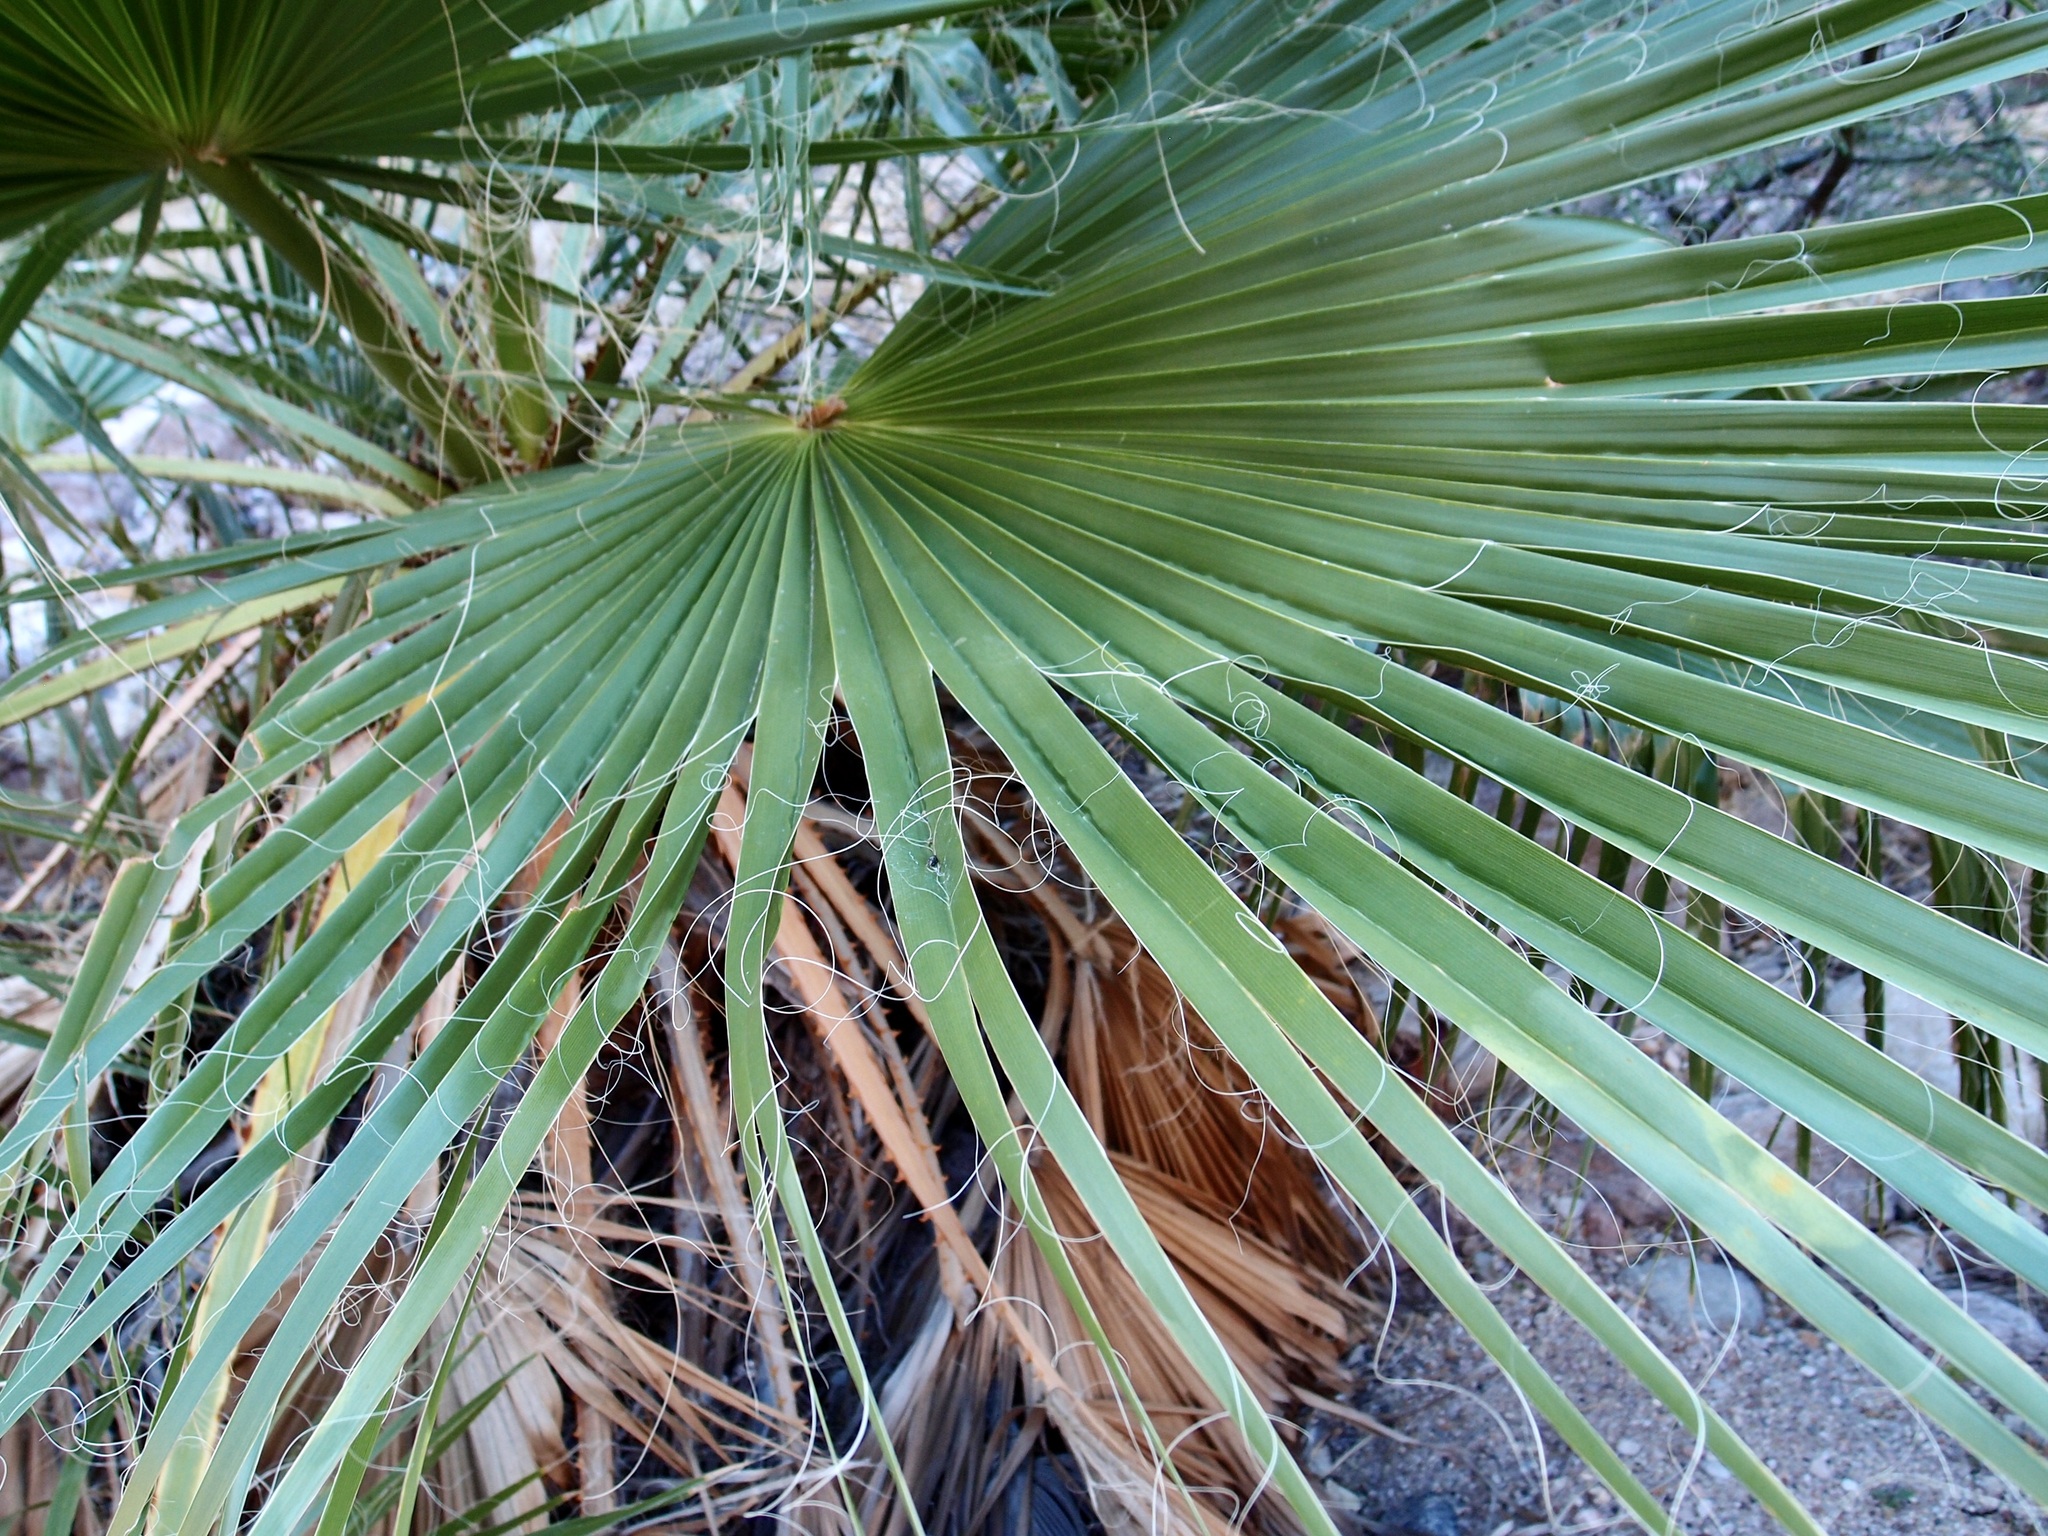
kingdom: Plantae
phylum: Tracheophyta
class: Liliopsida
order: Arecales
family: Arecaceae
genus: Washingtonia
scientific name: Washingtonia robusta
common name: Mexican fan palm
